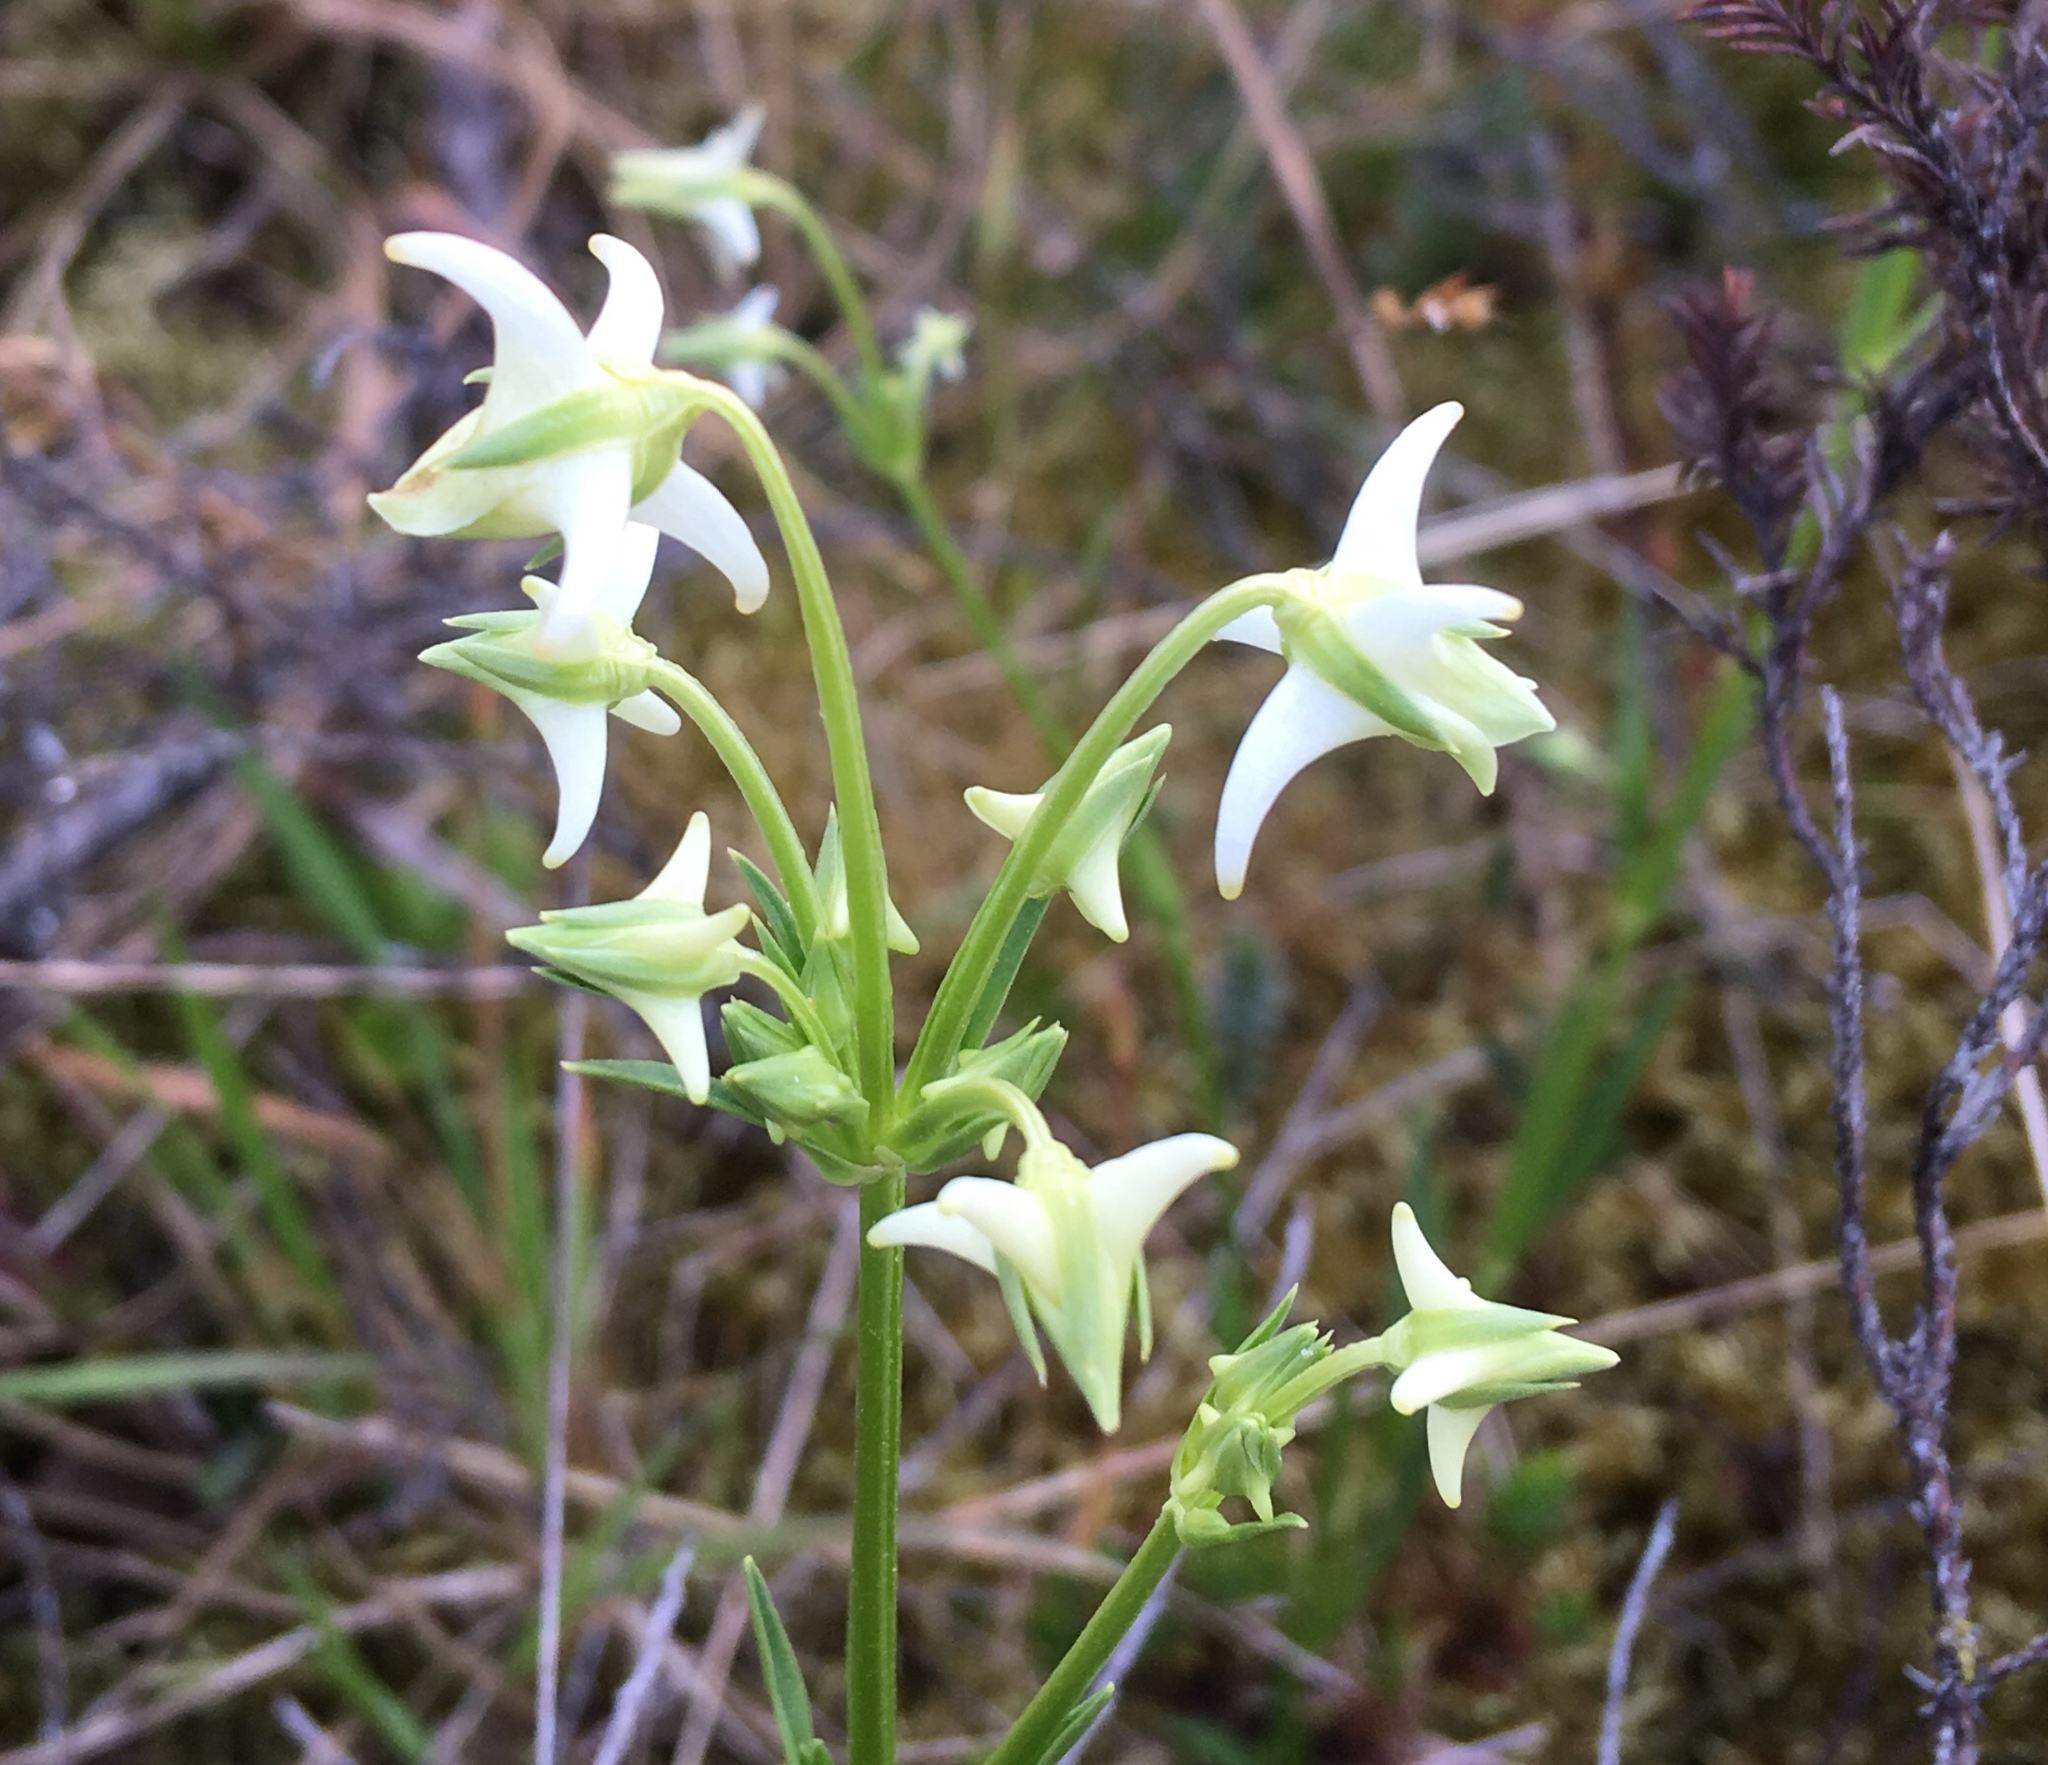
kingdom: Plantae
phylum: Tracheophyta
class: Magnoliopsida
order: Gentianales
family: Gentianaceae
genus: Halenia
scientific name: Halenia major
